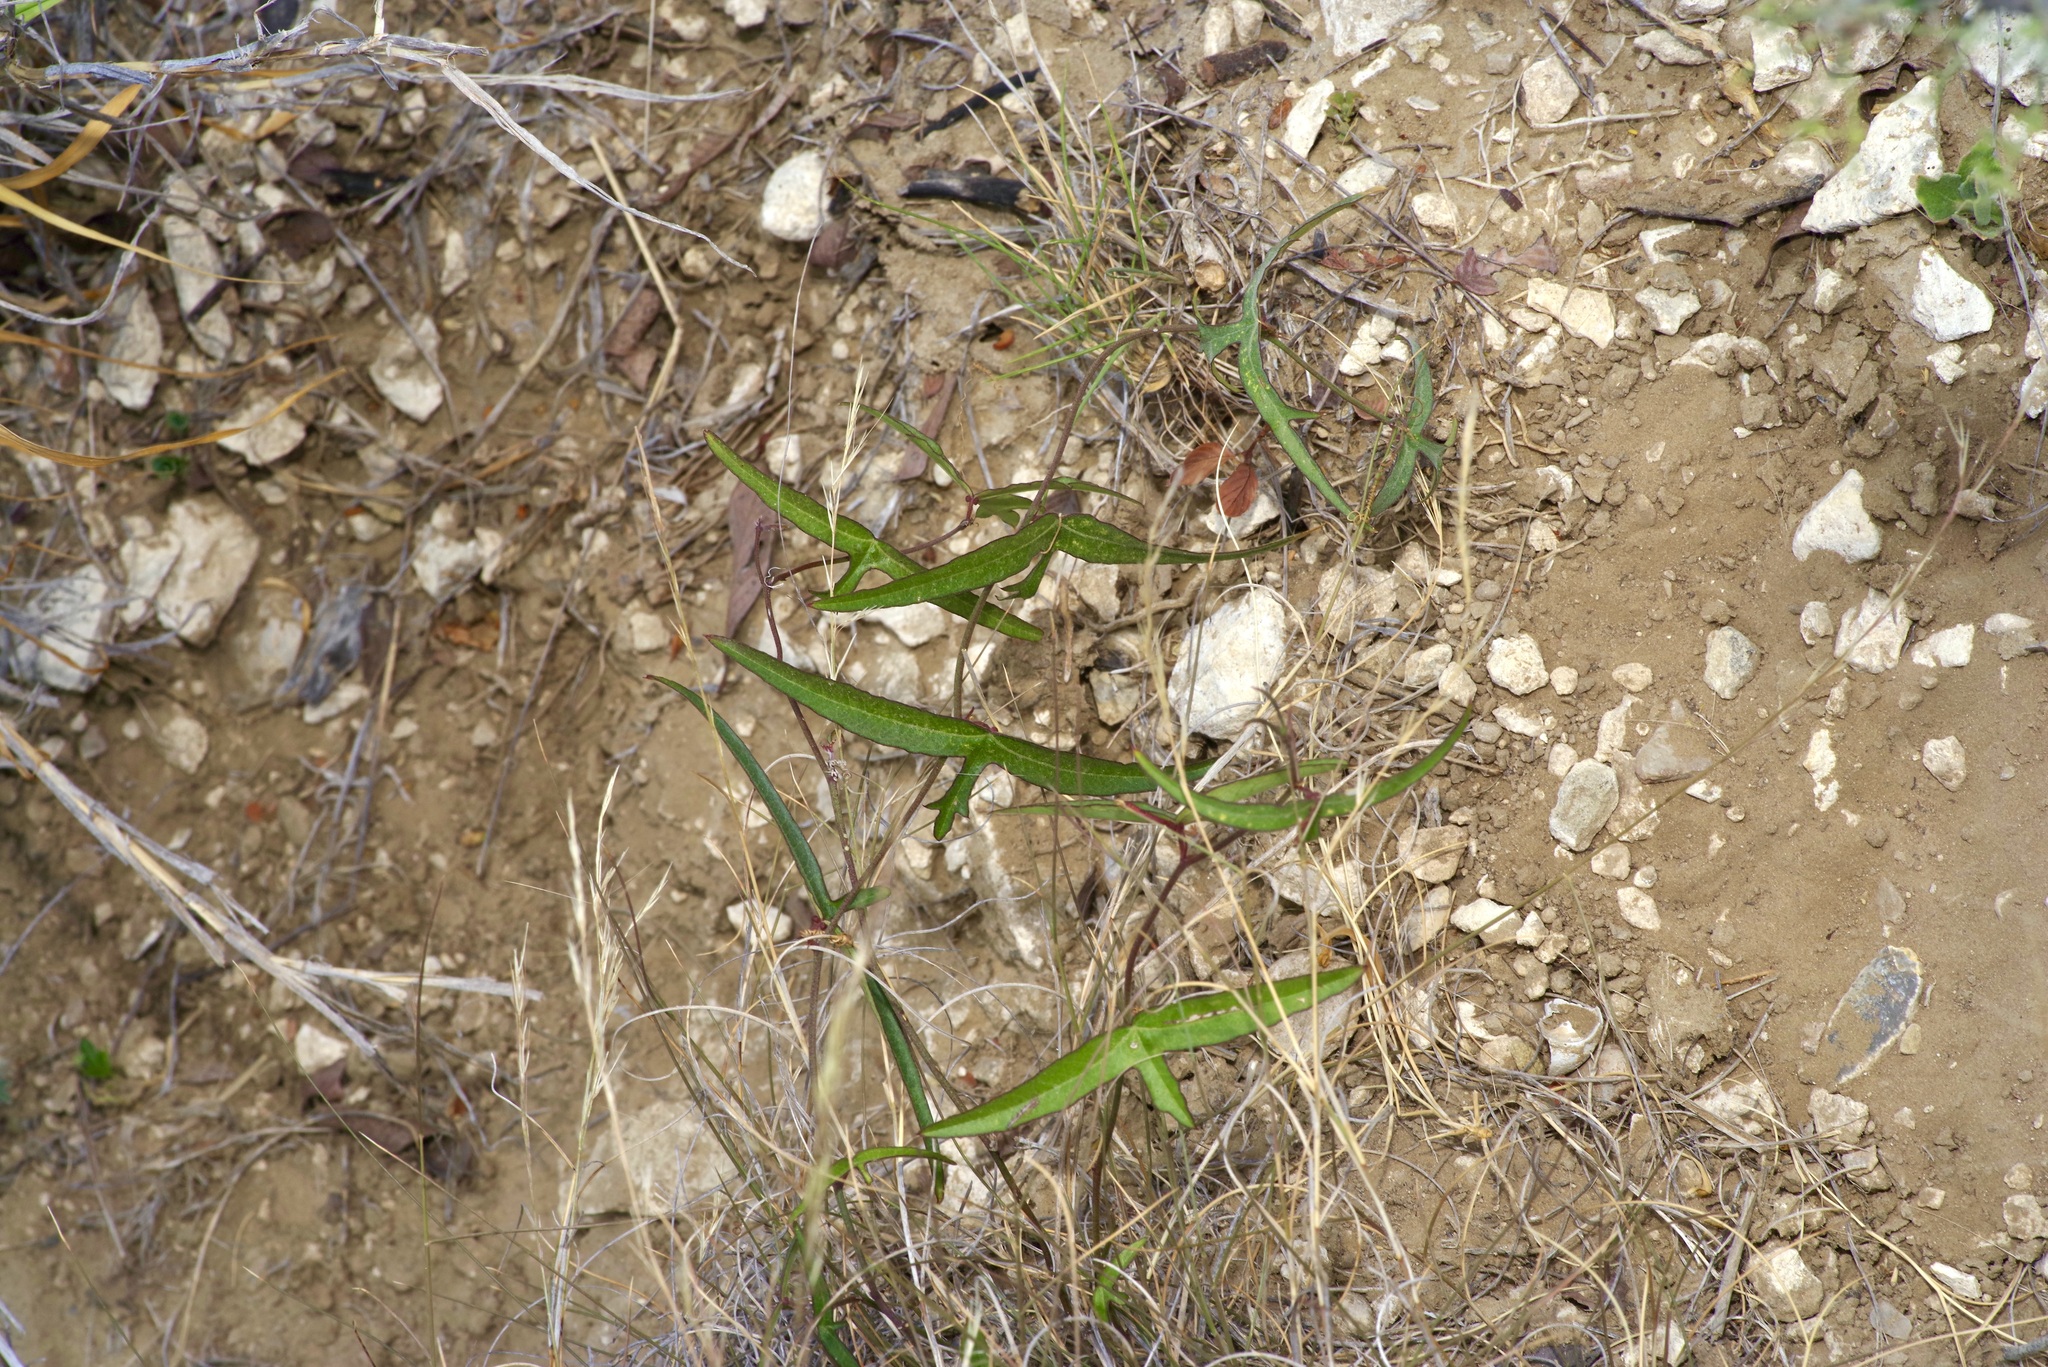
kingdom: Plantae
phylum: Tracheophyta
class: Magnoliopsida
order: Malpighiales
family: Passifloraceae
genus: Passiflora
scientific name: Passiflora tenuiloba
